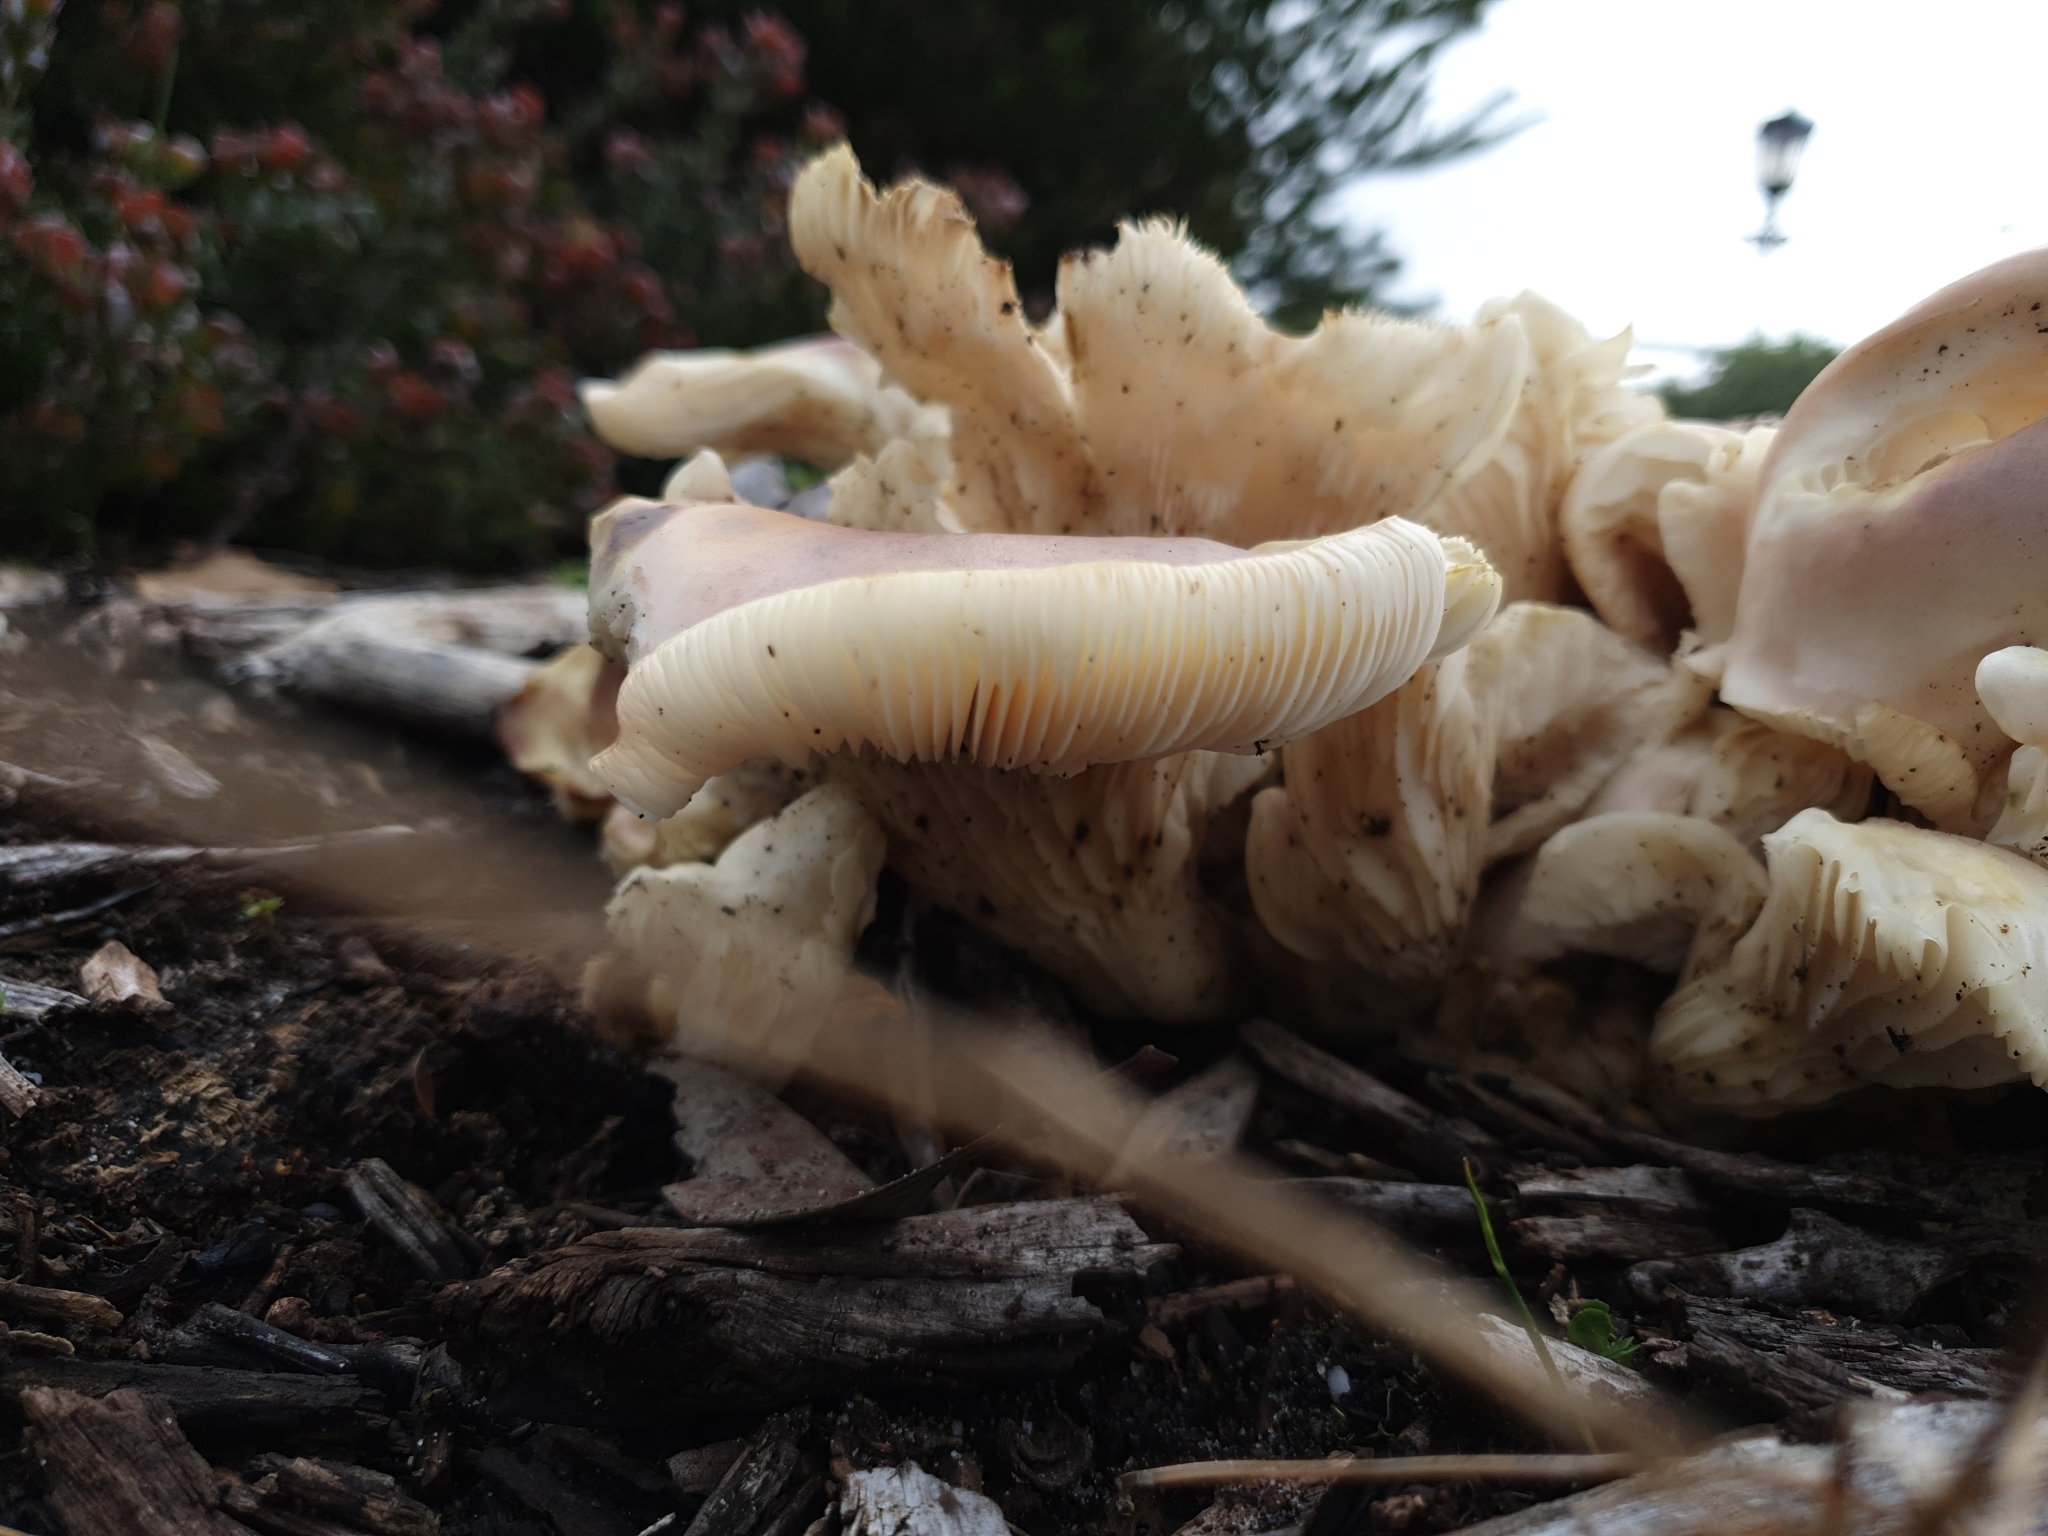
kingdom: Fungi
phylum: Basidiomycota
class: Agaricomycetes
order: Agaricales
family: Omphalotaceae
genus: Omphalotus
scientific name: Omphalotus nidiformis
